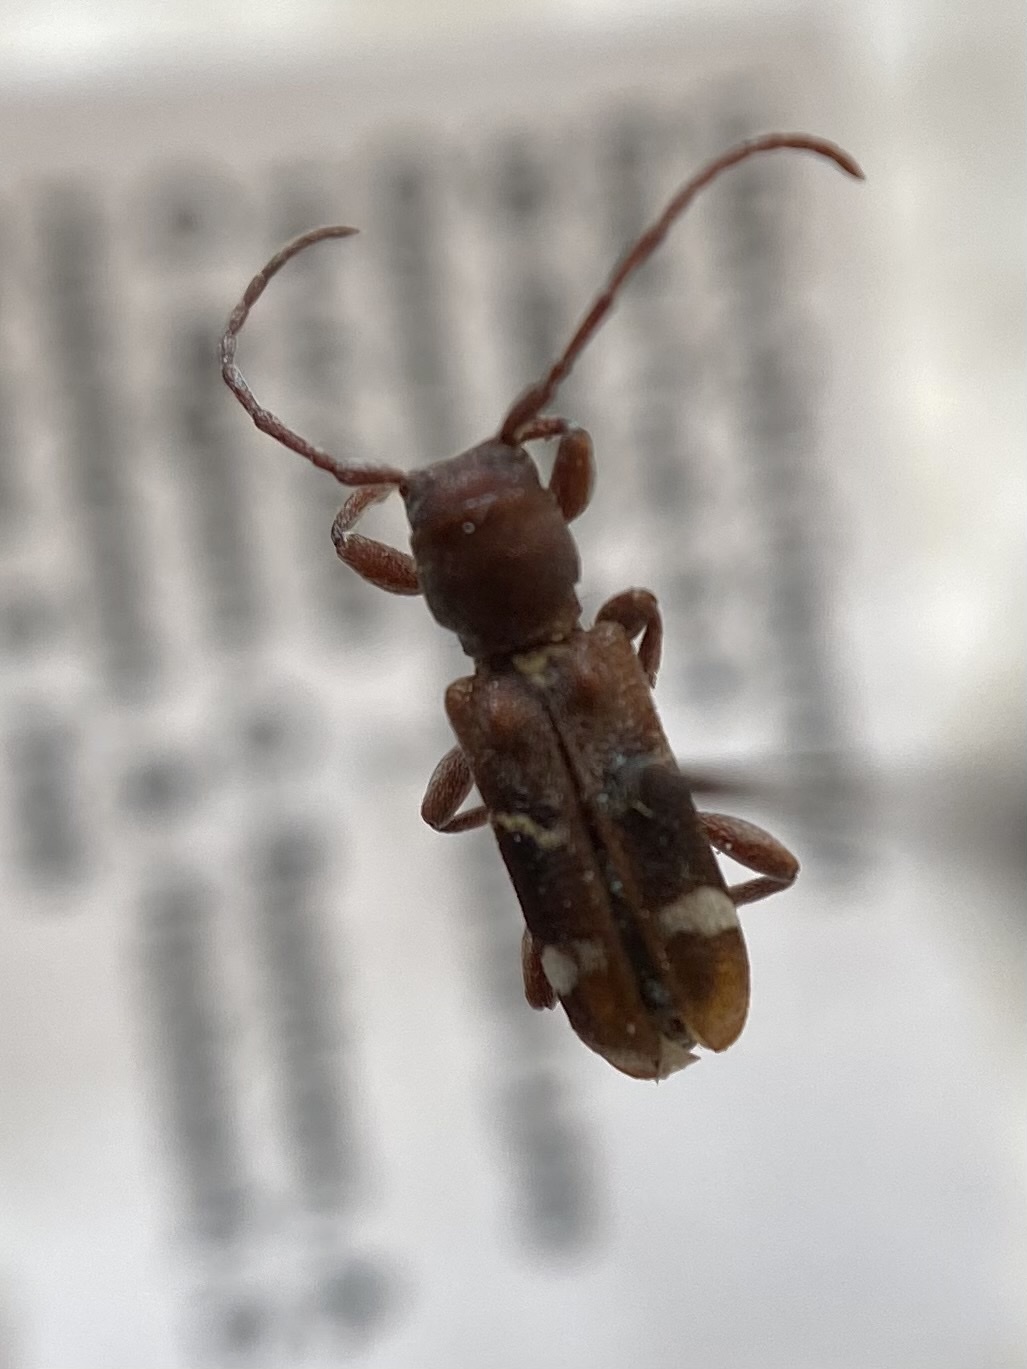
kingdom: Animalia
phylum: Arthropoda
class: Insecta
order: Coleoptera
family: Cerambycidae
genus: Psenocerus
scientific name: Psenocerus supernotatus
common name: Currant-tip borer
